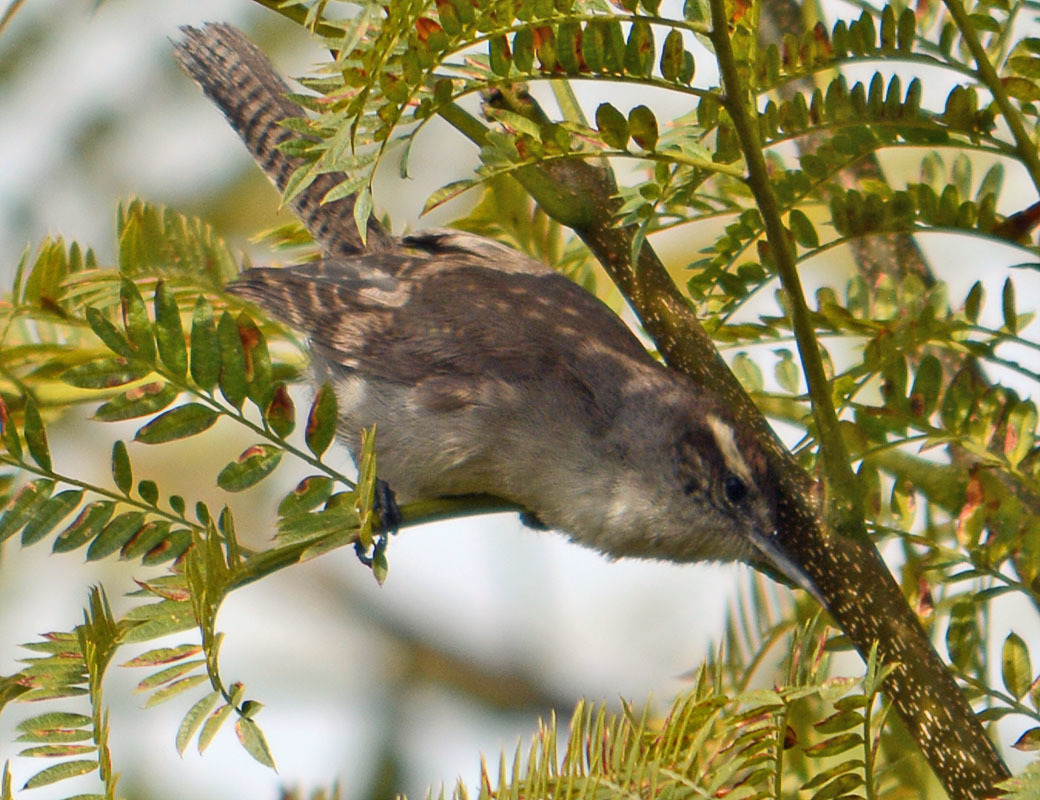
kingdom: Animalia
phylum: Chordata
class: Aves
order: Passeriformes
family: Troglodytidae
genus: Thryomanes
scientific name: Thryomanes bewickii
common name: Bewick's wren
